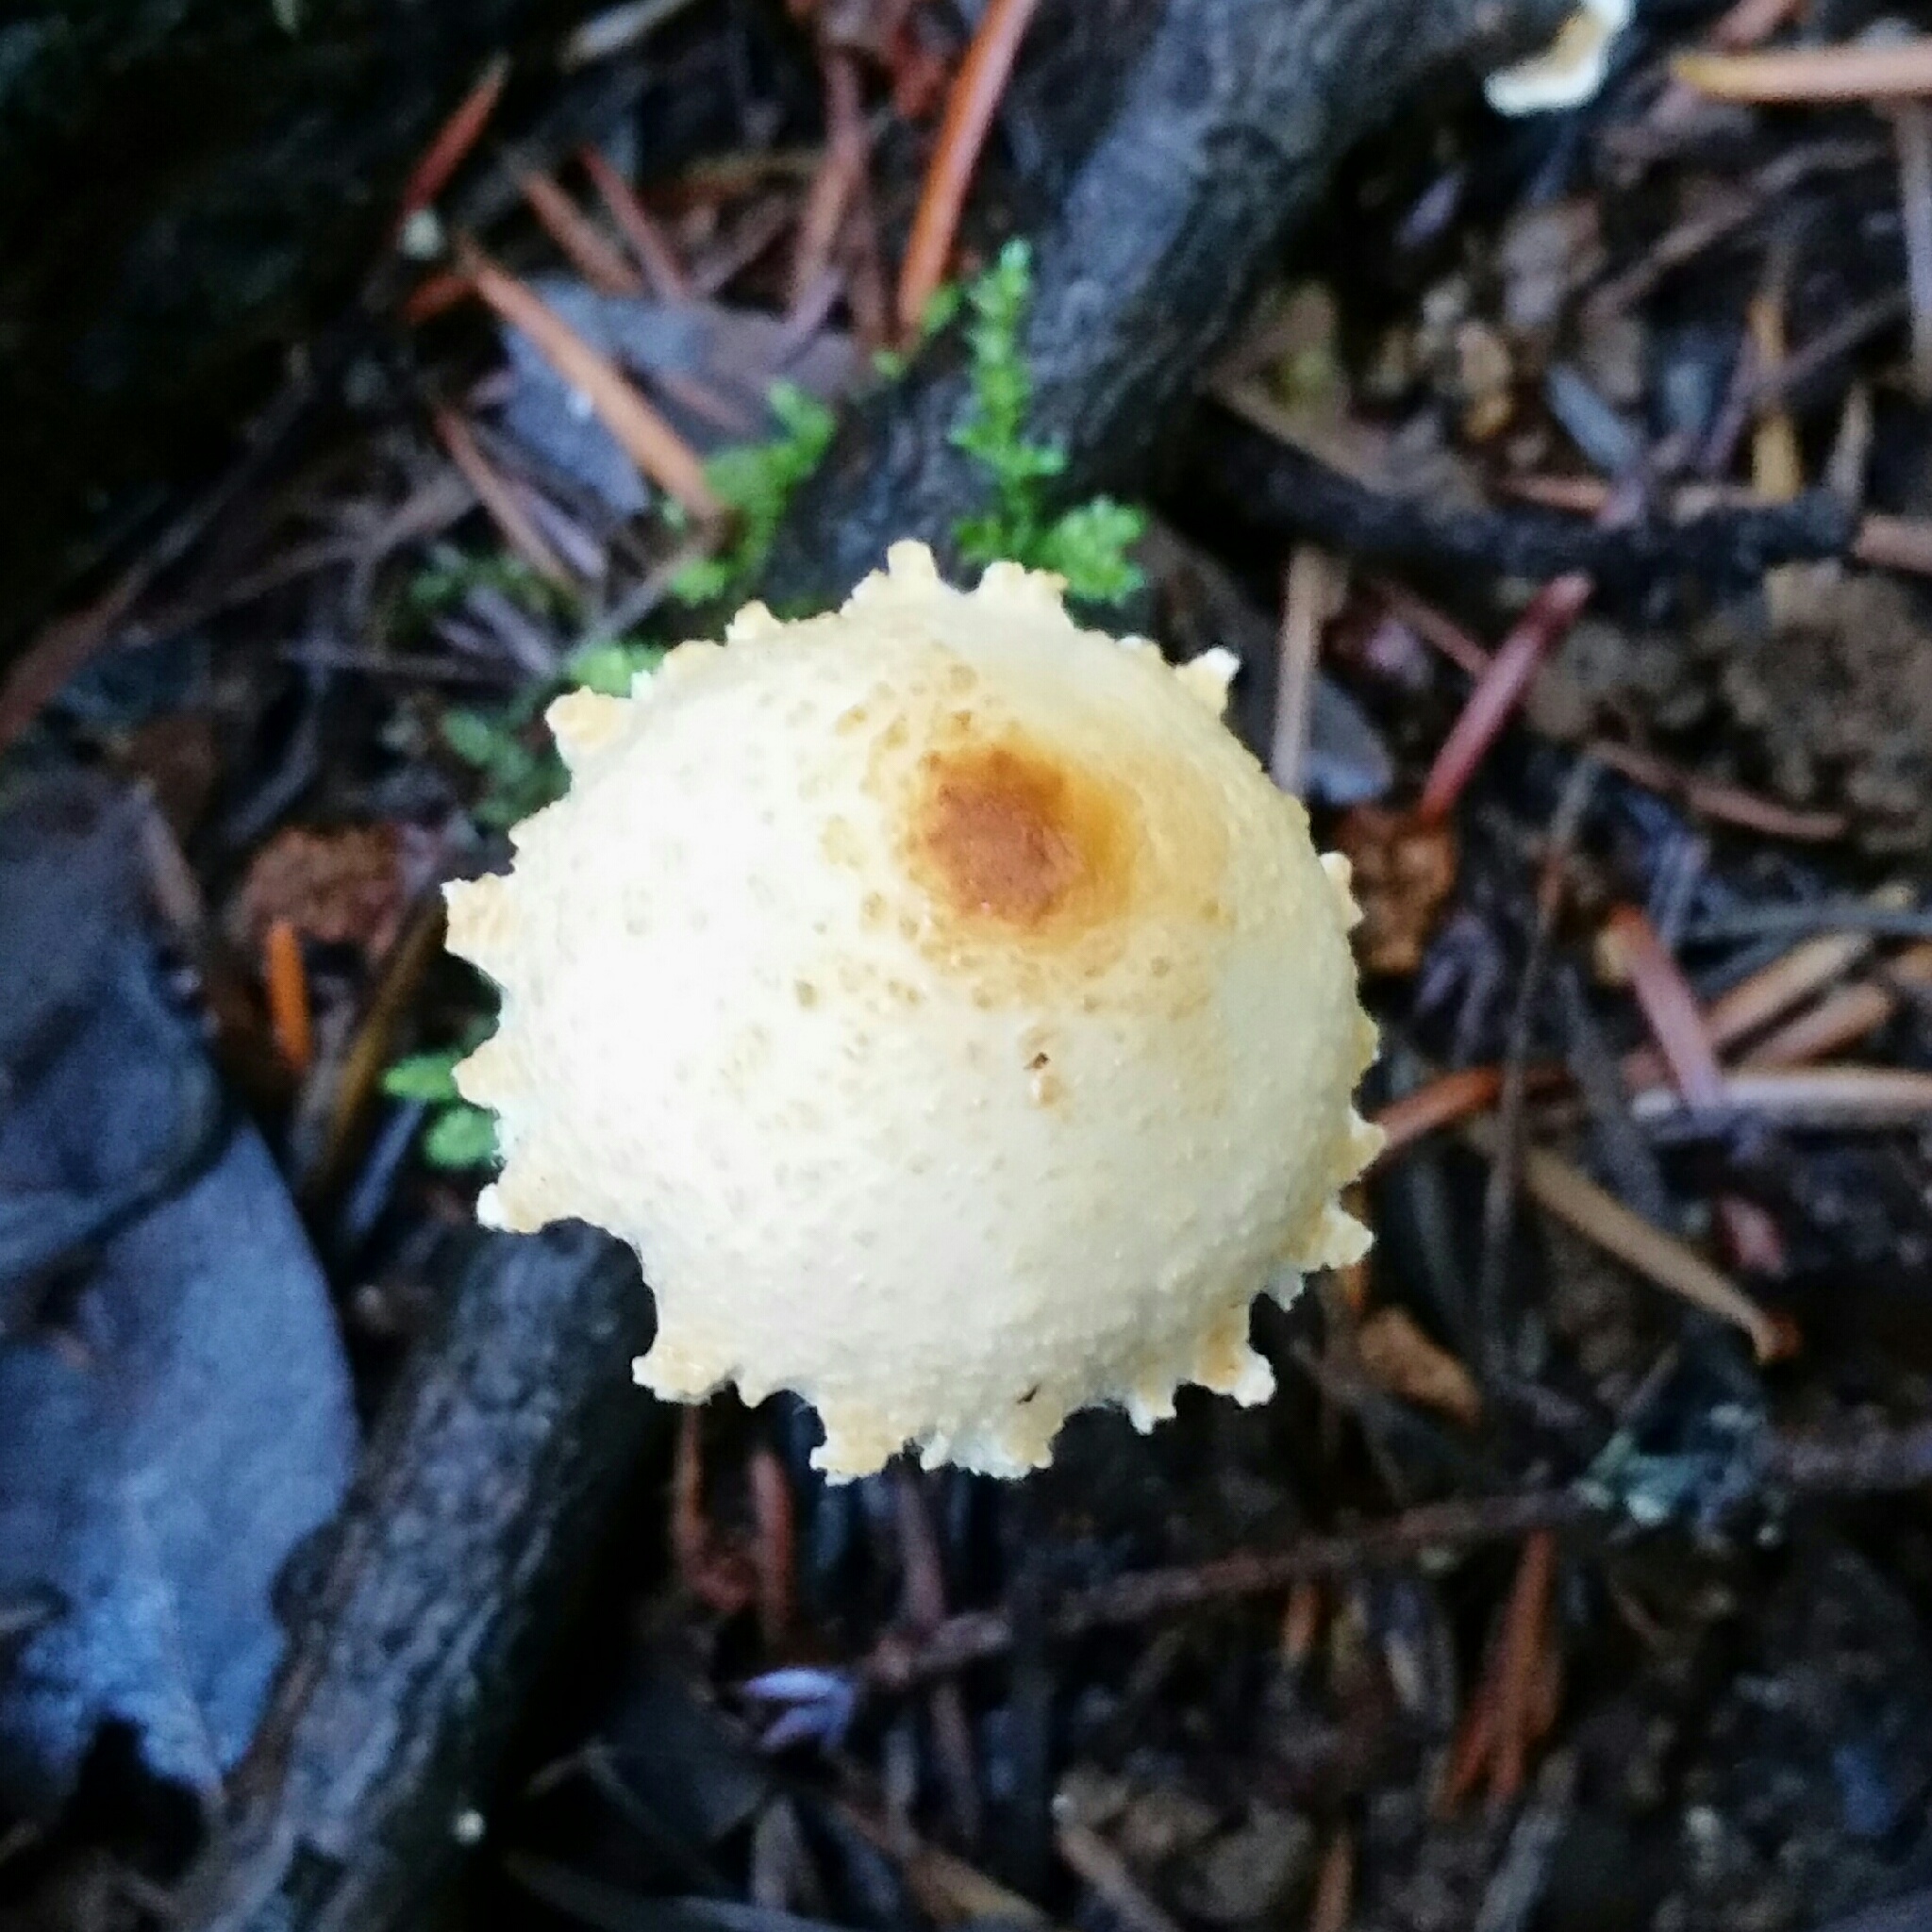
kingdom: Fungi
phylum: Basidiomycota
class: Agaricomycetes
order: Agaricales
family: Agaricaceae
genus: Lepiota
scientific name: Lepiota magnispora
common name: Yellowfoot dapperling
